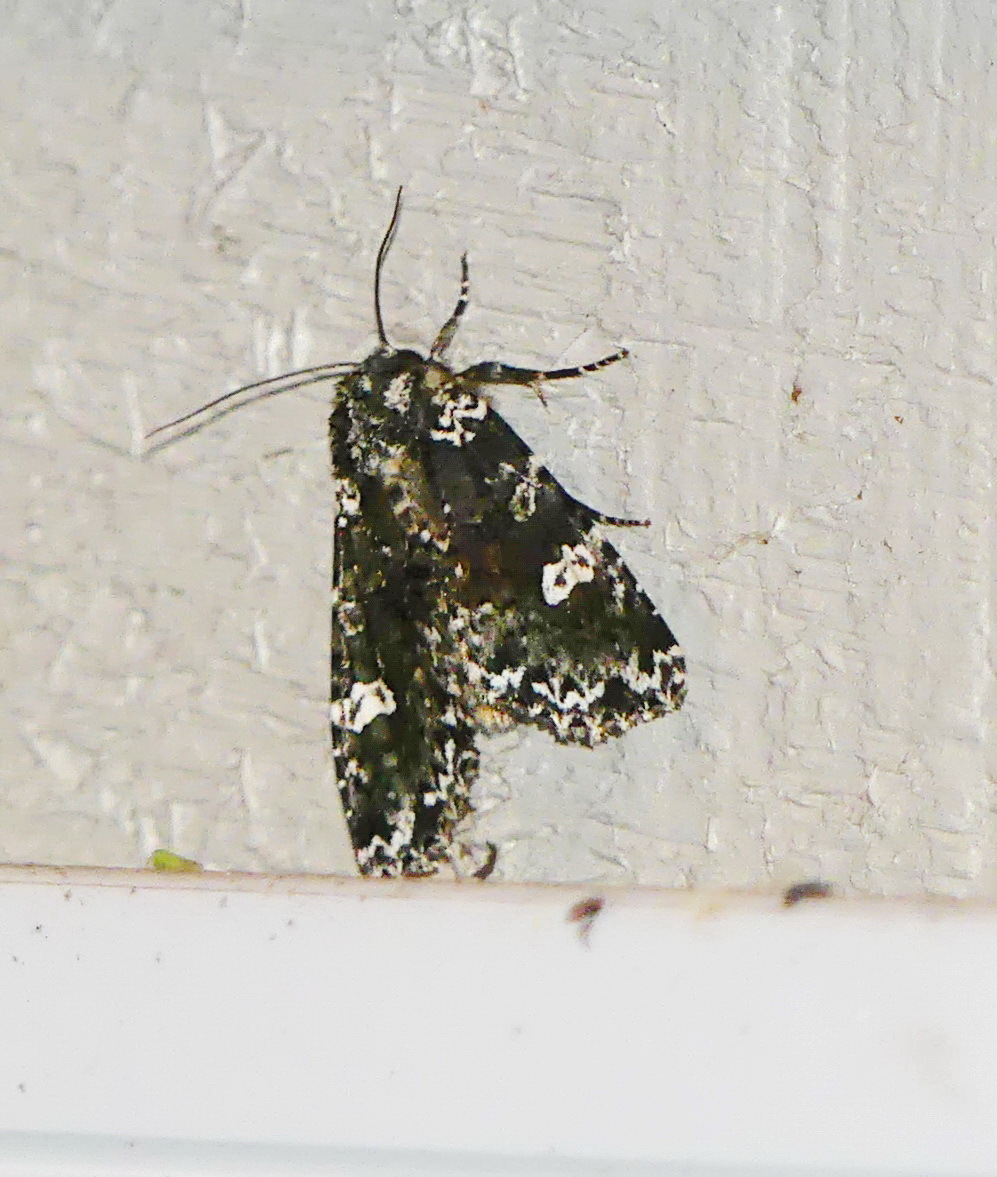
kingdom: Animalia
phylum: Arthropoda
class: Insecta
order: Lepidoptera
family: Noctuidae
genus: Melanchra
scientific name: Melanchra adjuncta
